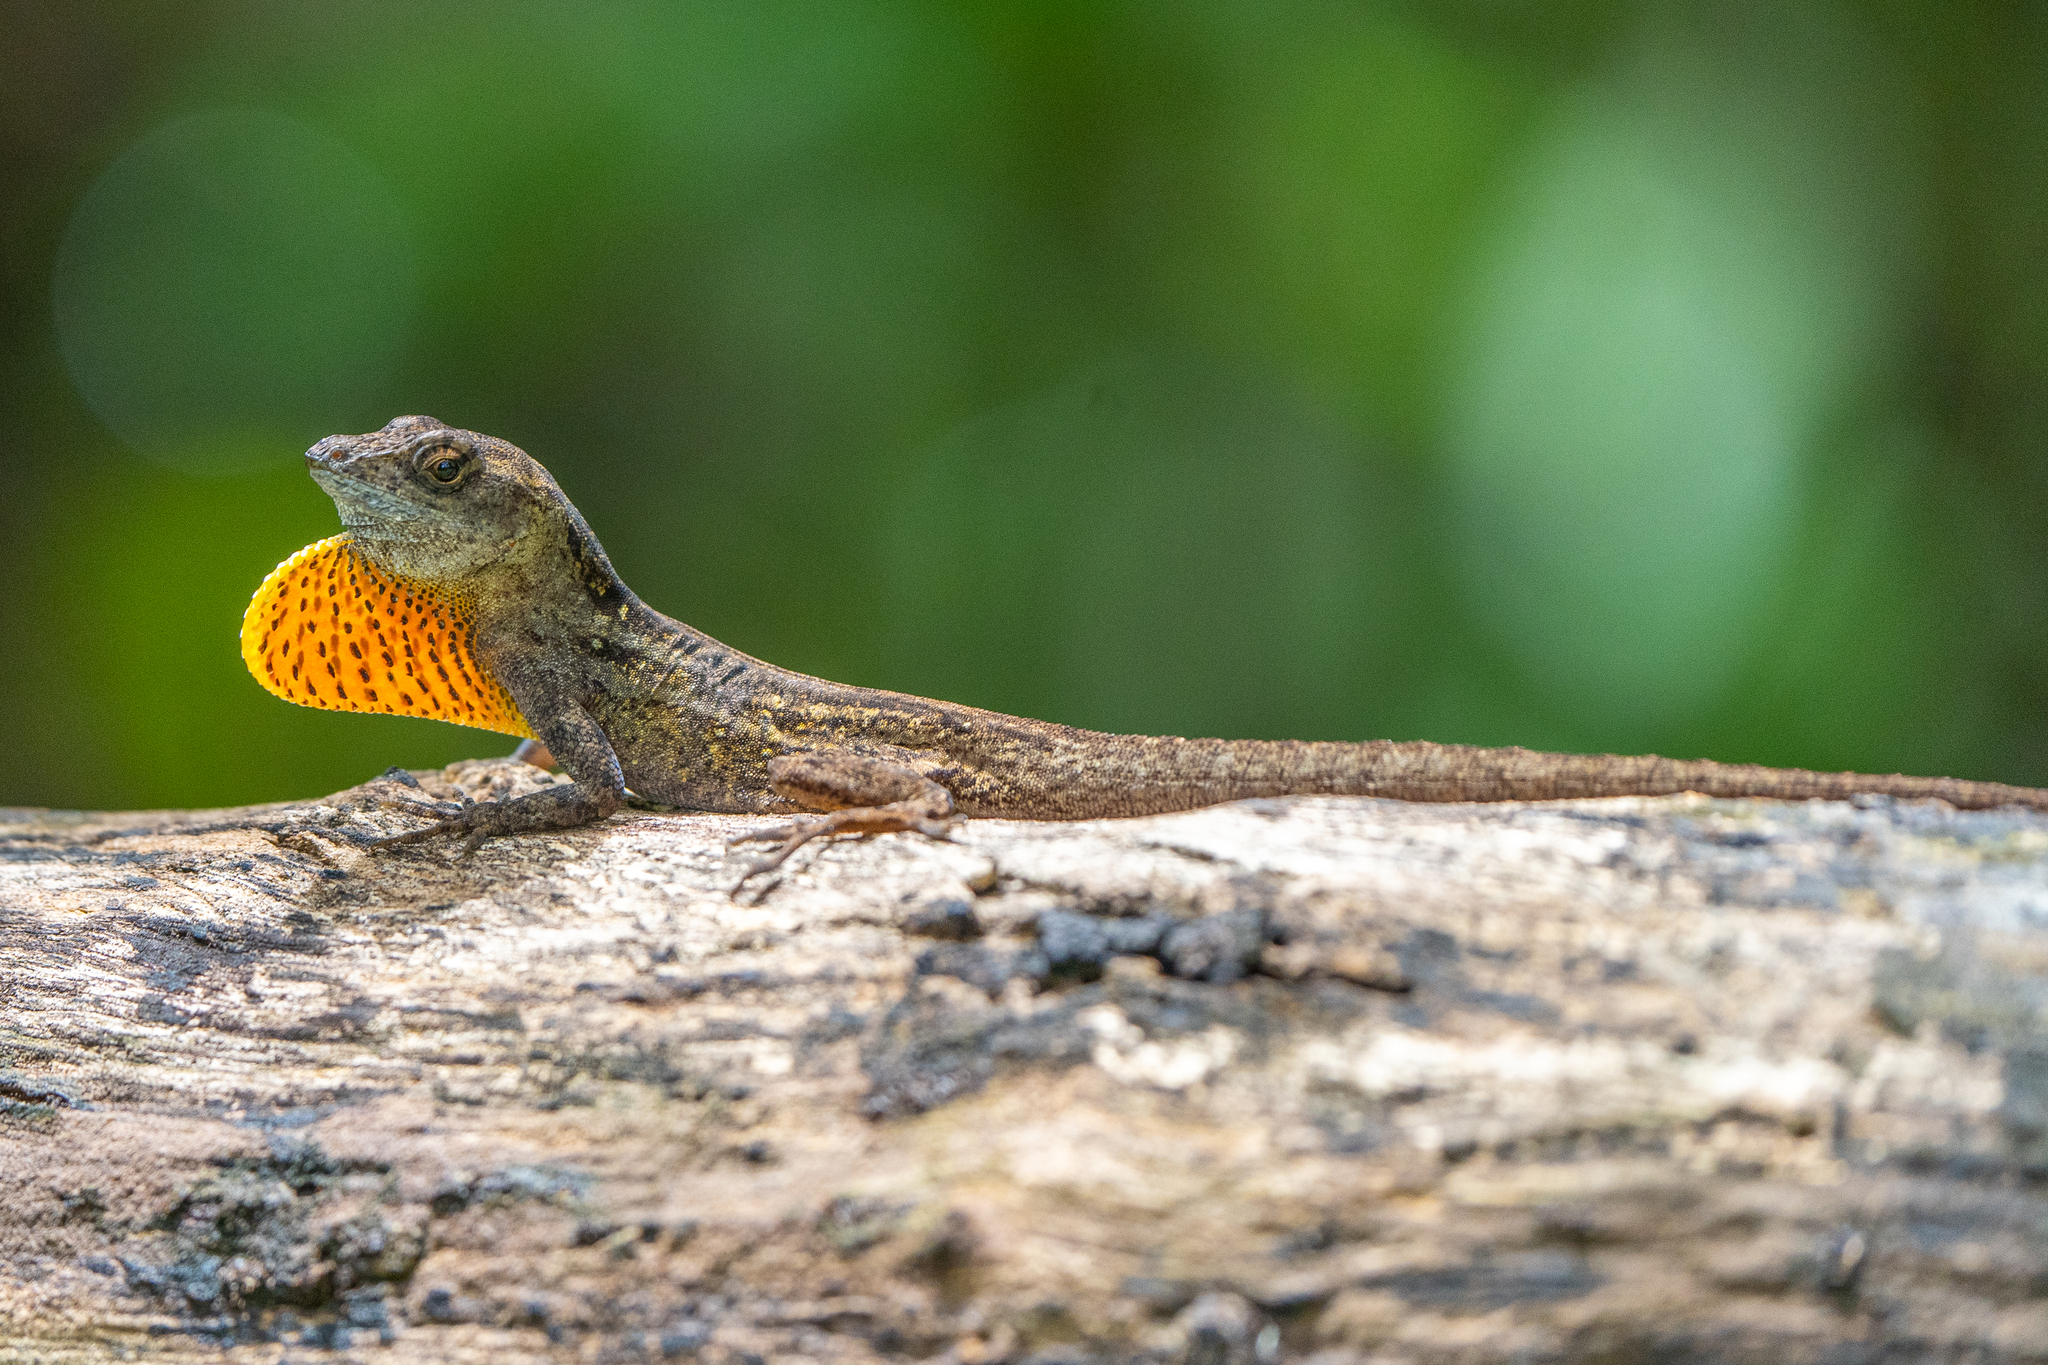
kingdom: Animalia
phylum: Chordata
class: Squamata
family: Dactyloidae
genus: Anolis
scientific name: Anolis sagrei
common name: Brown anole
